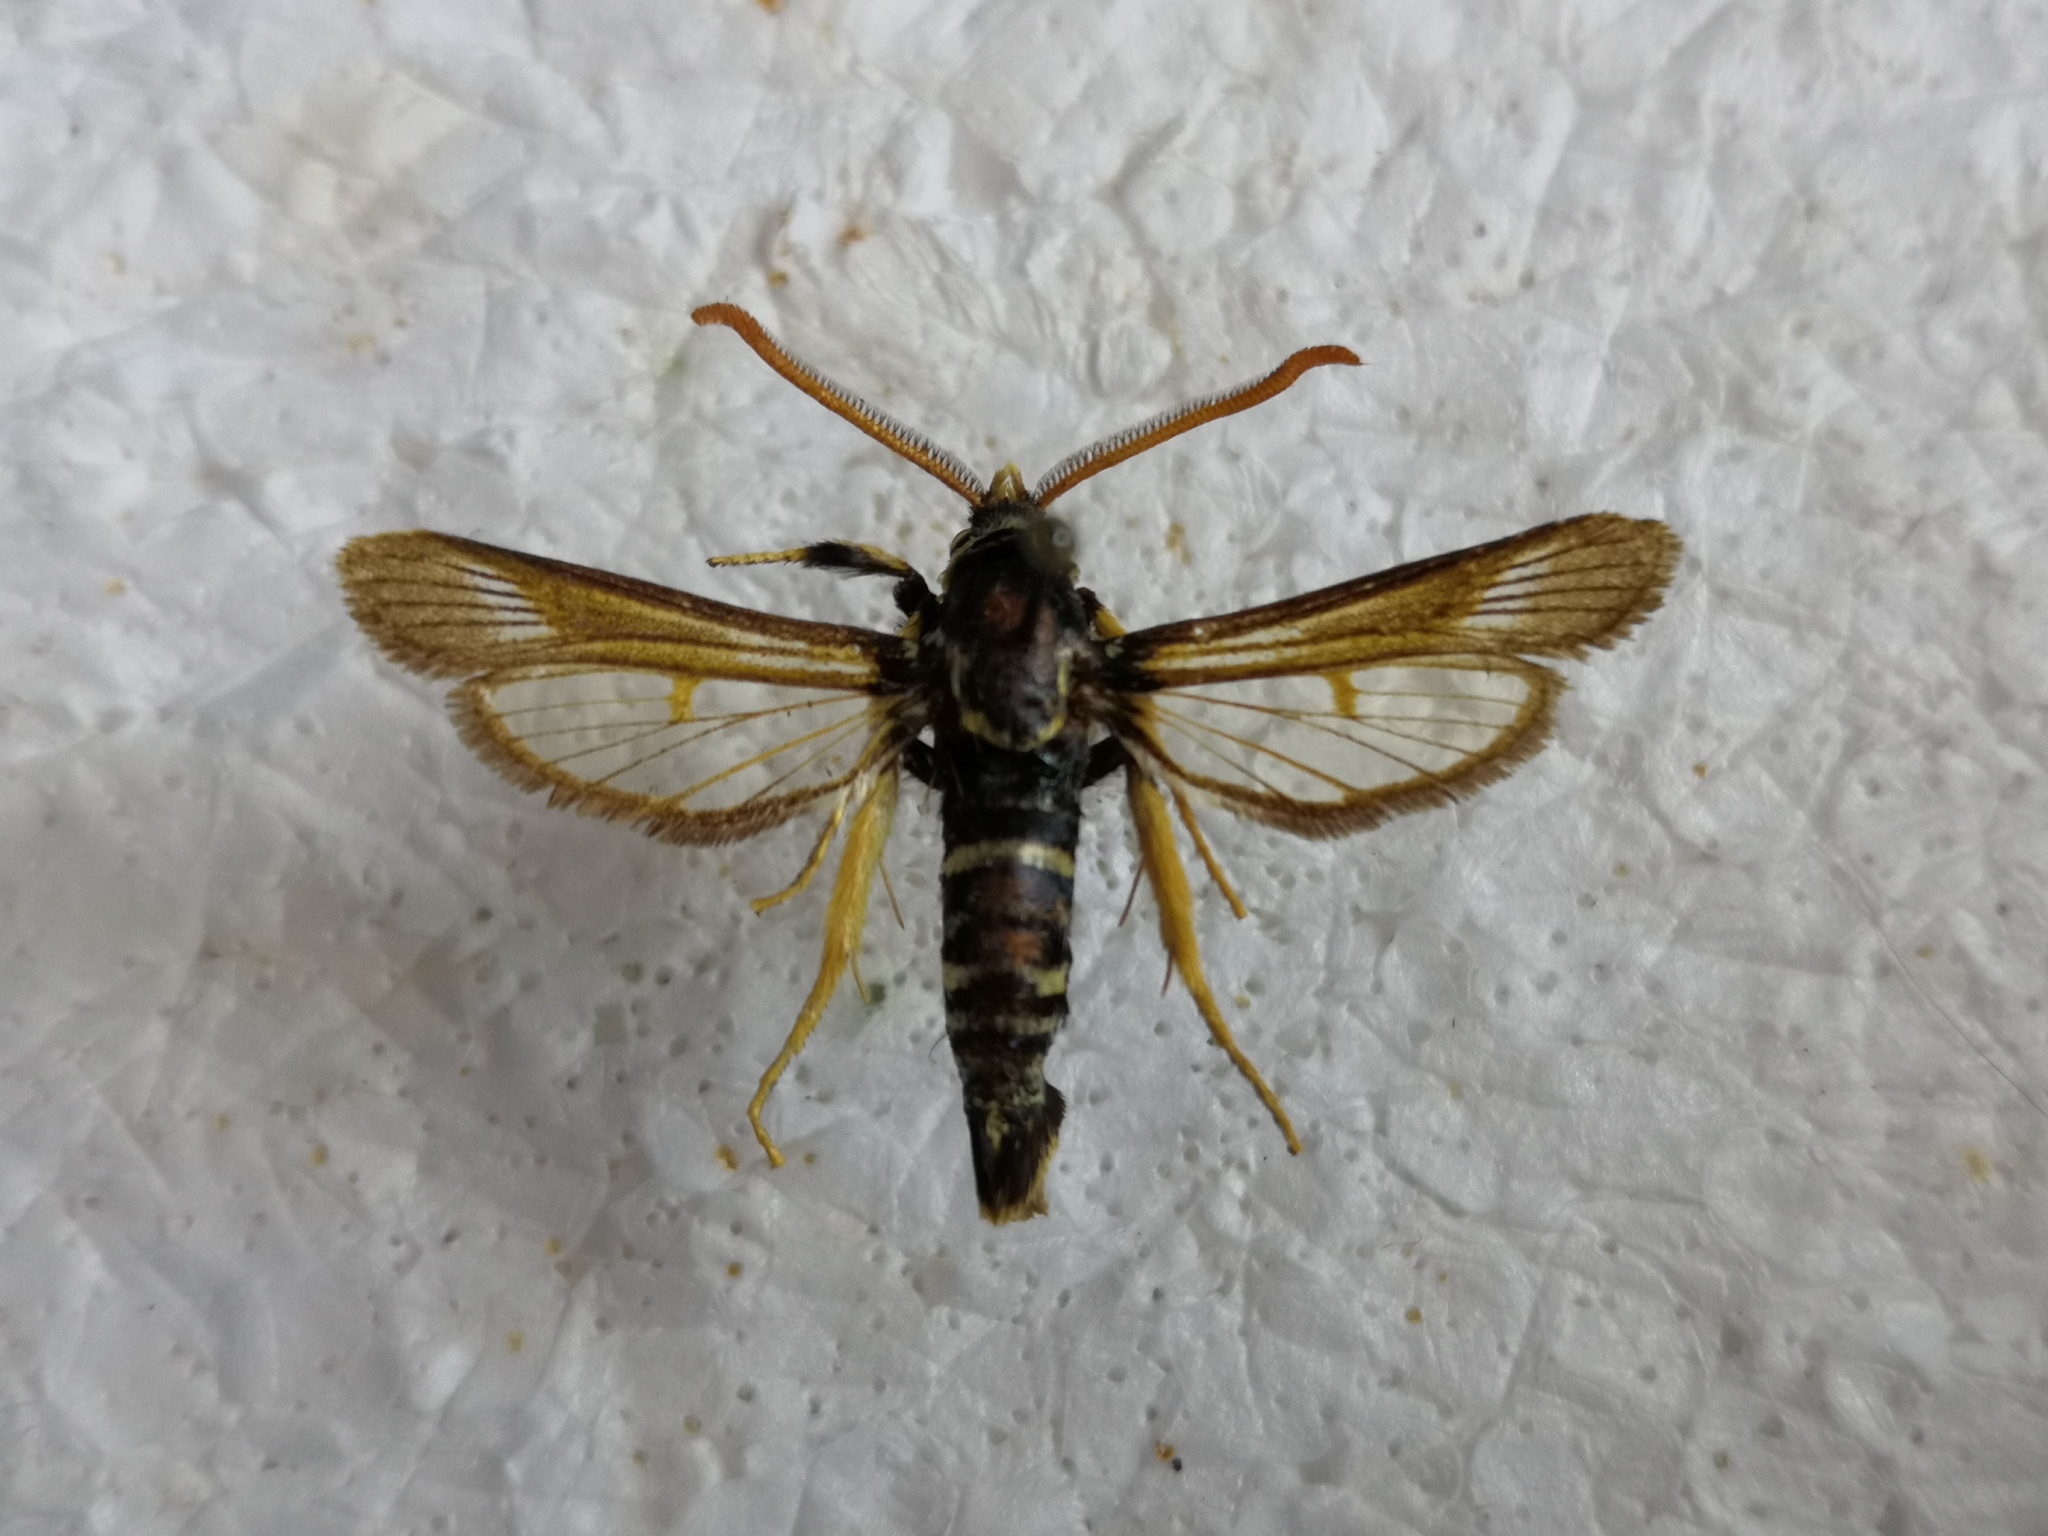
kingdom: Animalia
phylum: Arthropoda
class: Insecta
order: Lepidoptera
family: Sesiidae
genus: Paranthrene
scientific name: Paranthrene insolitus
